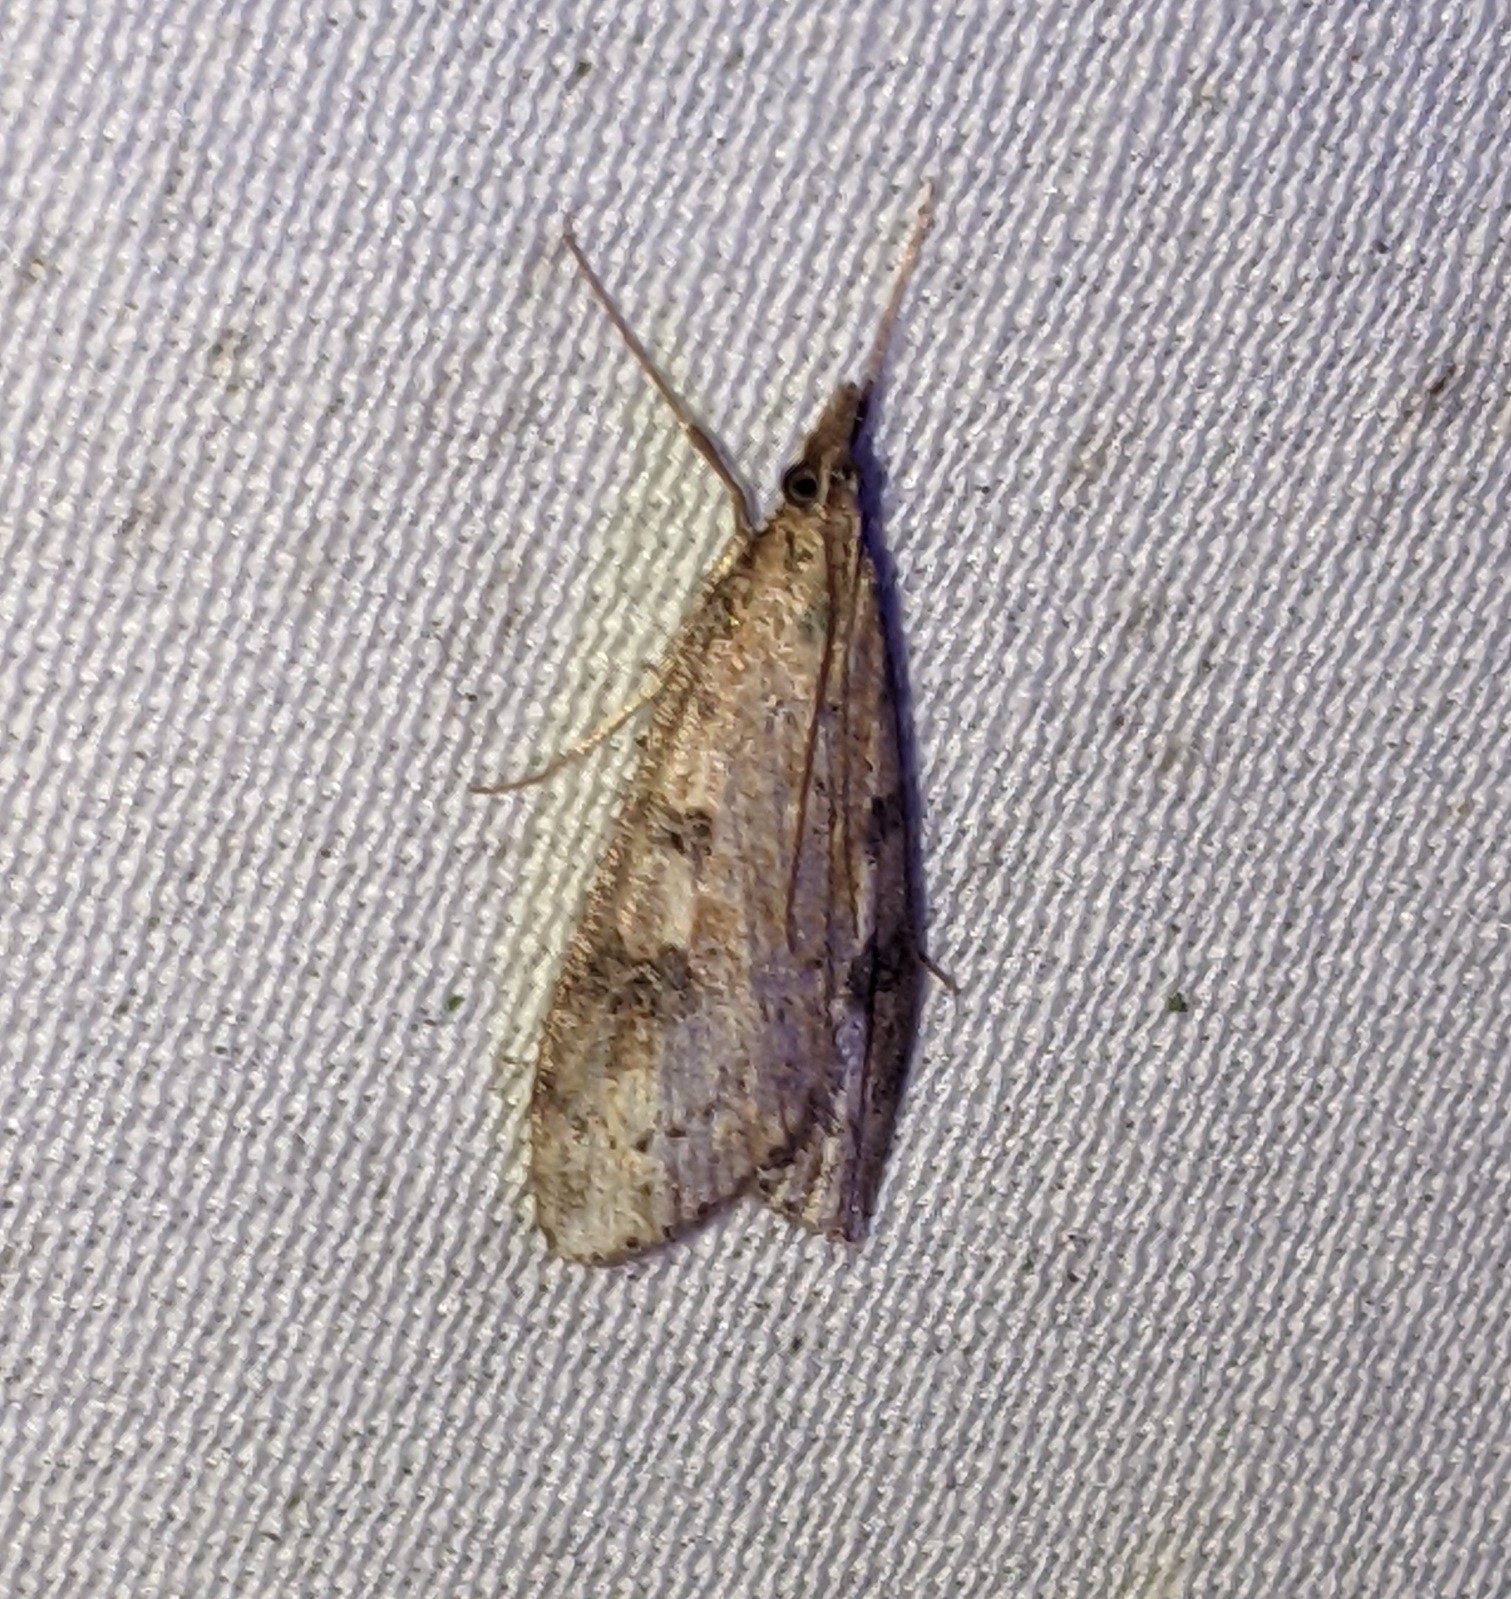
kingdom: Animalia
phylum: Arthropoda
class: Insecta
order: Lepidoptera
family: Crambidae
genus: Udea
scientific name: Udea turmalis
